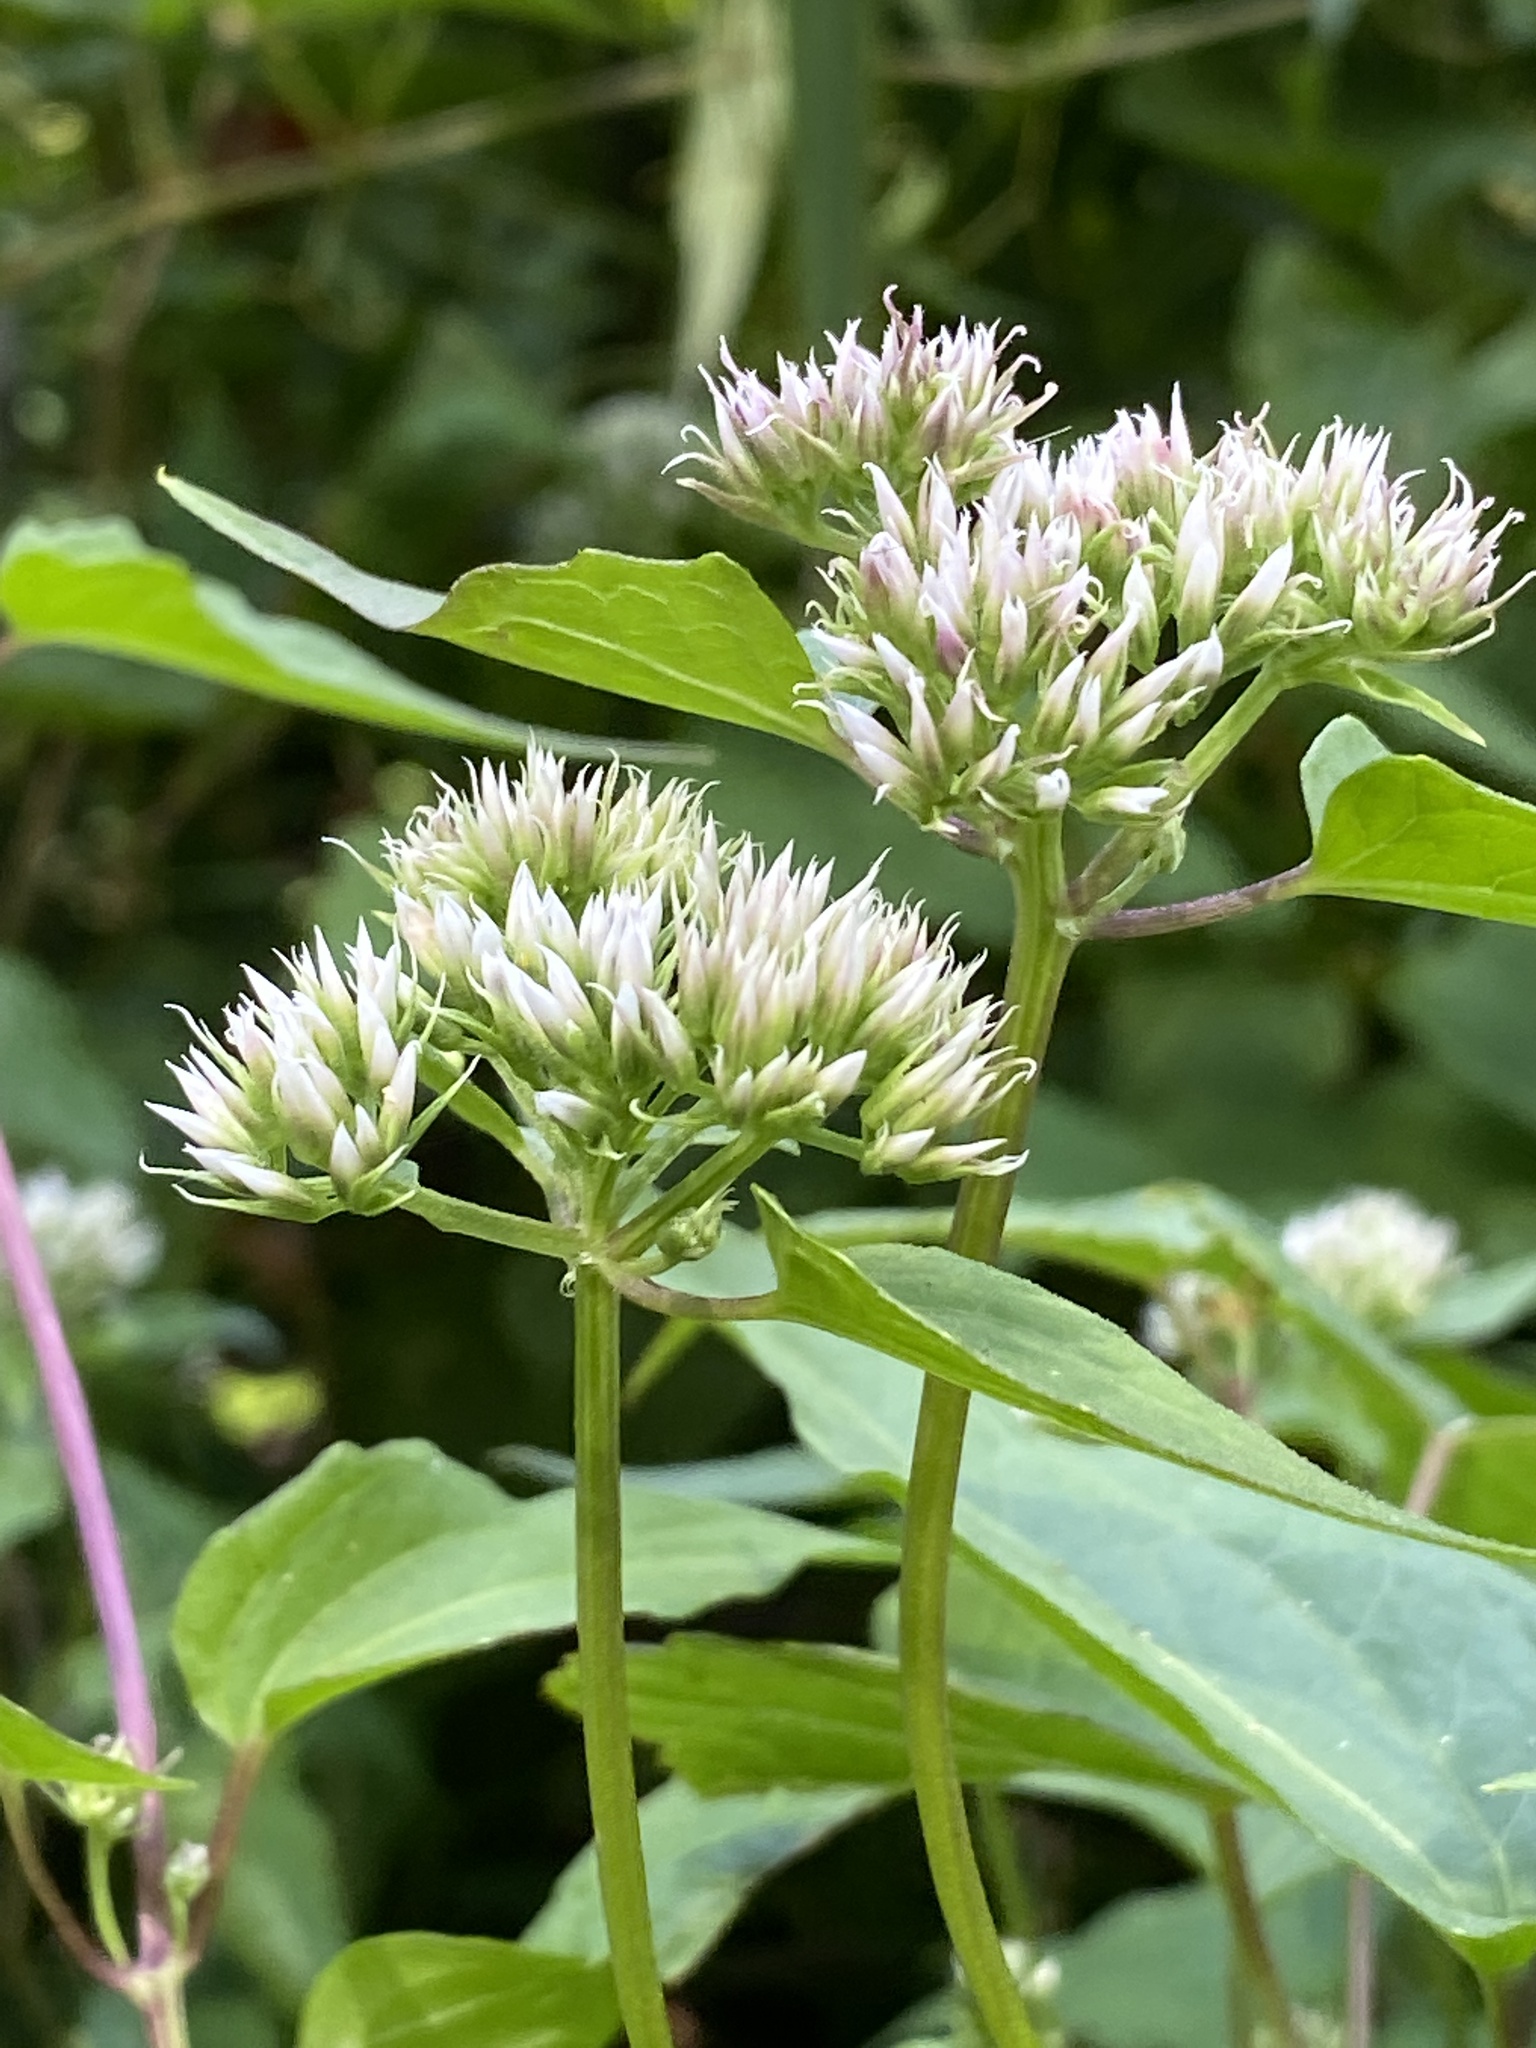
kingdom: Plantae
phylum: Tracheophyta
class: Magnoliopsida
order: Asterales
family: Asteraceae
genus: Mikania
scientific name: Mikania scandens
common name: Climbing hempvine
